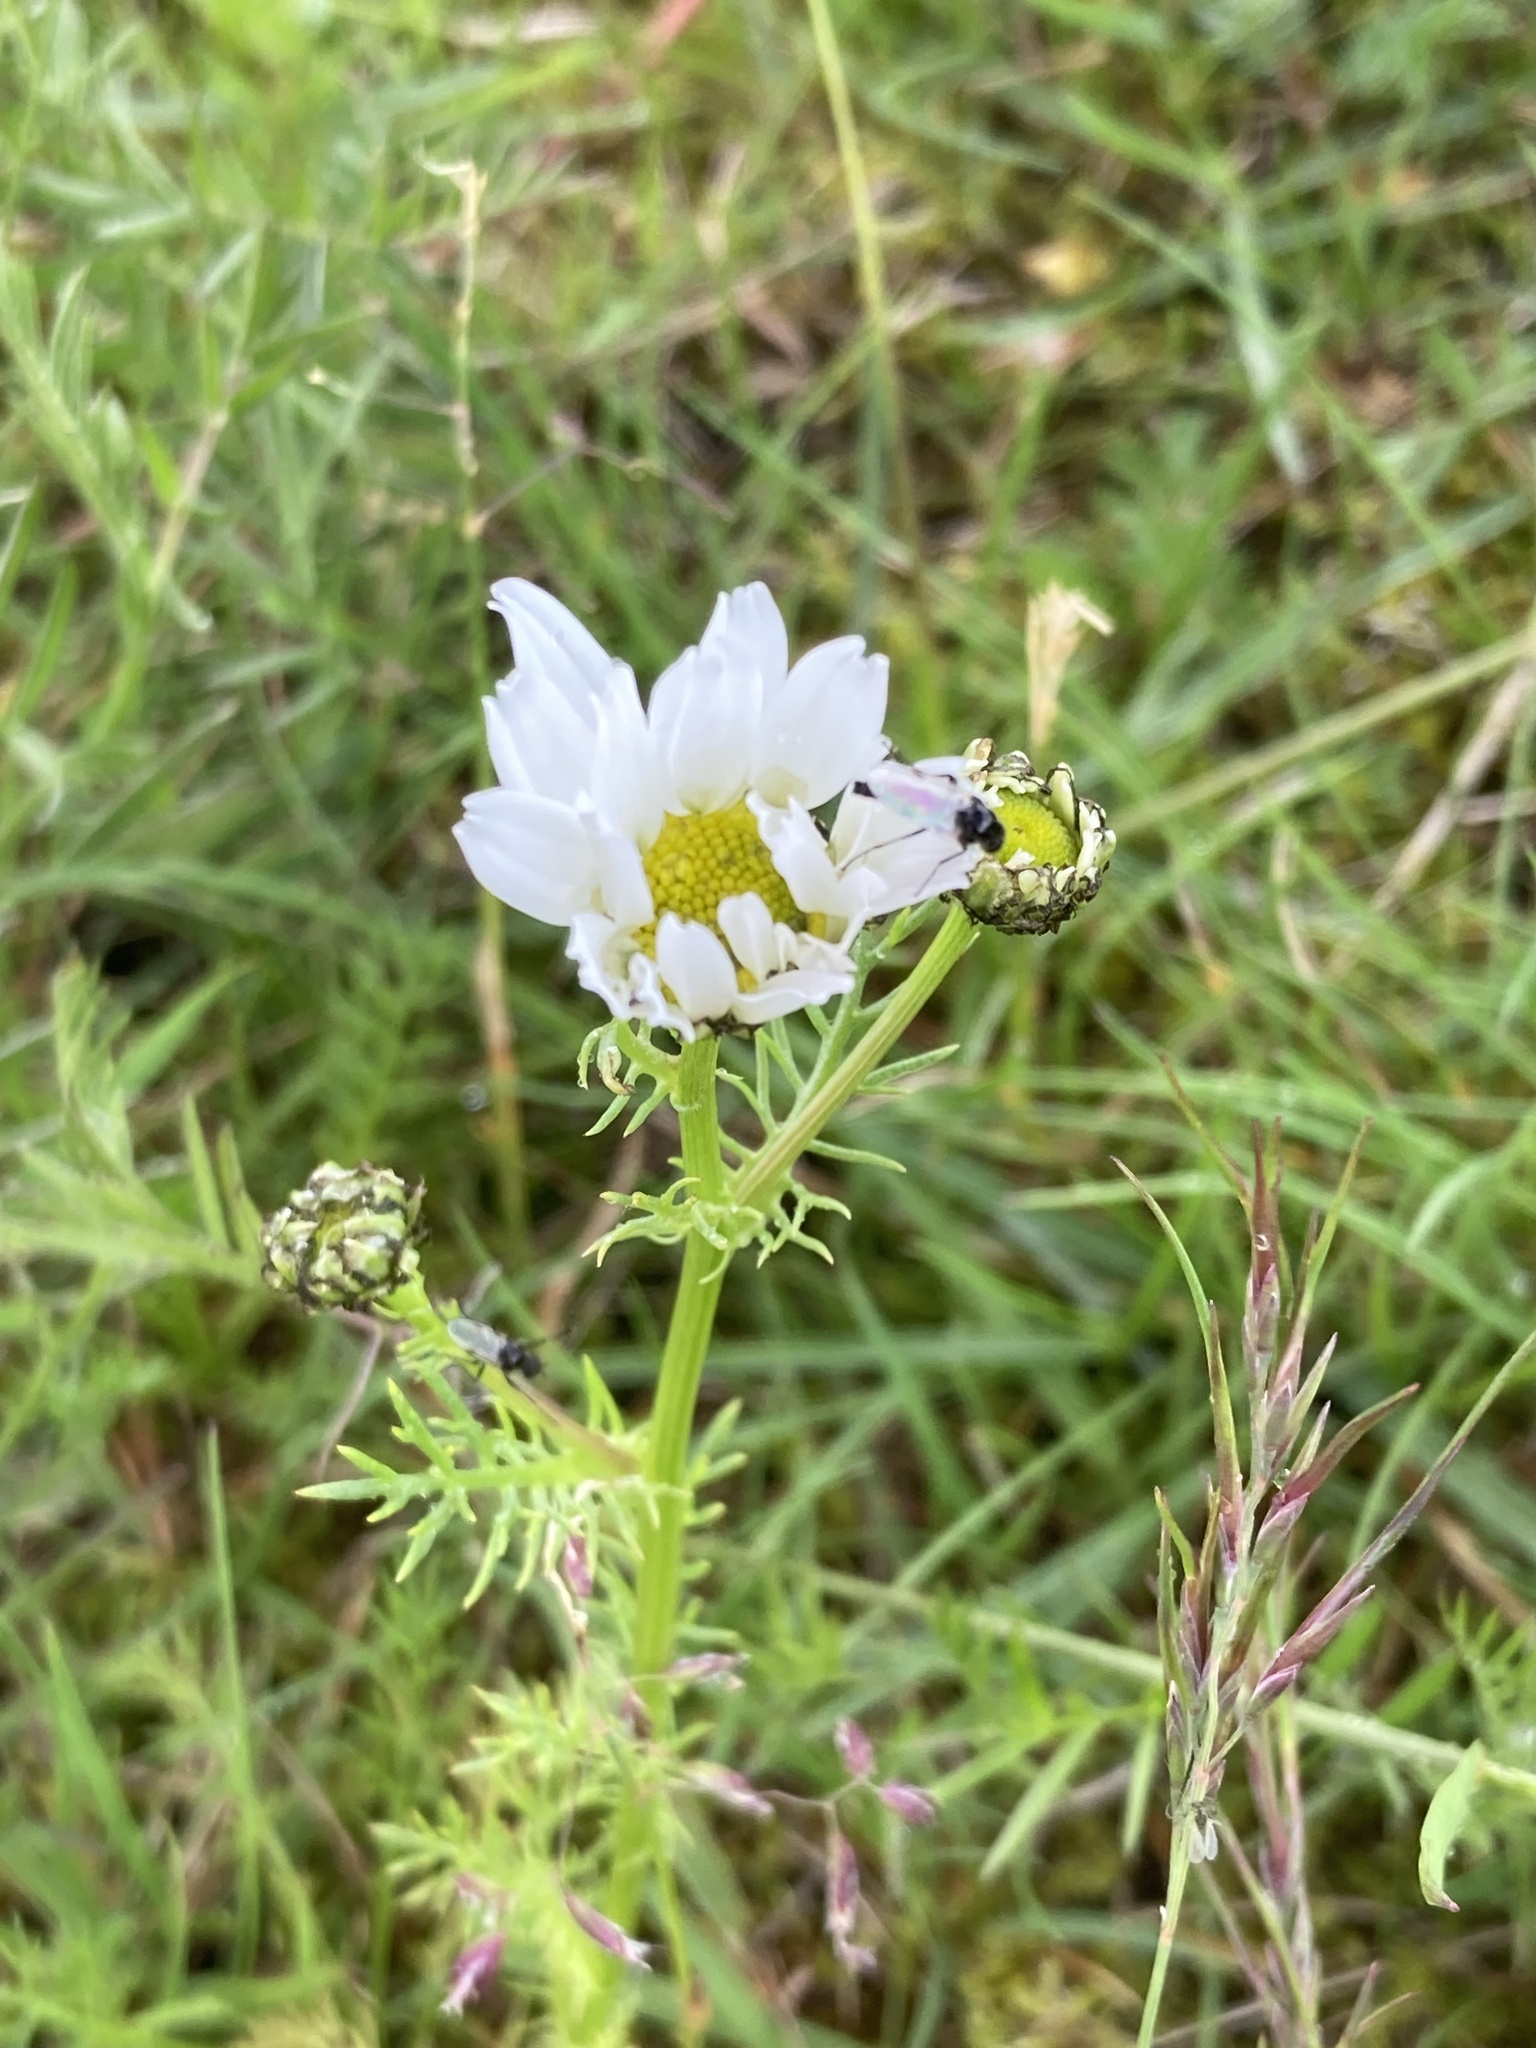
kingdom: Plantae
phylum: Tracheophyta
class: Magnoliopsida
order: Asterales
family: Asteraceae
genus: Tripleurospermum
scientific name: Tripleurospermum maritimum
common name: Sea mayweed
